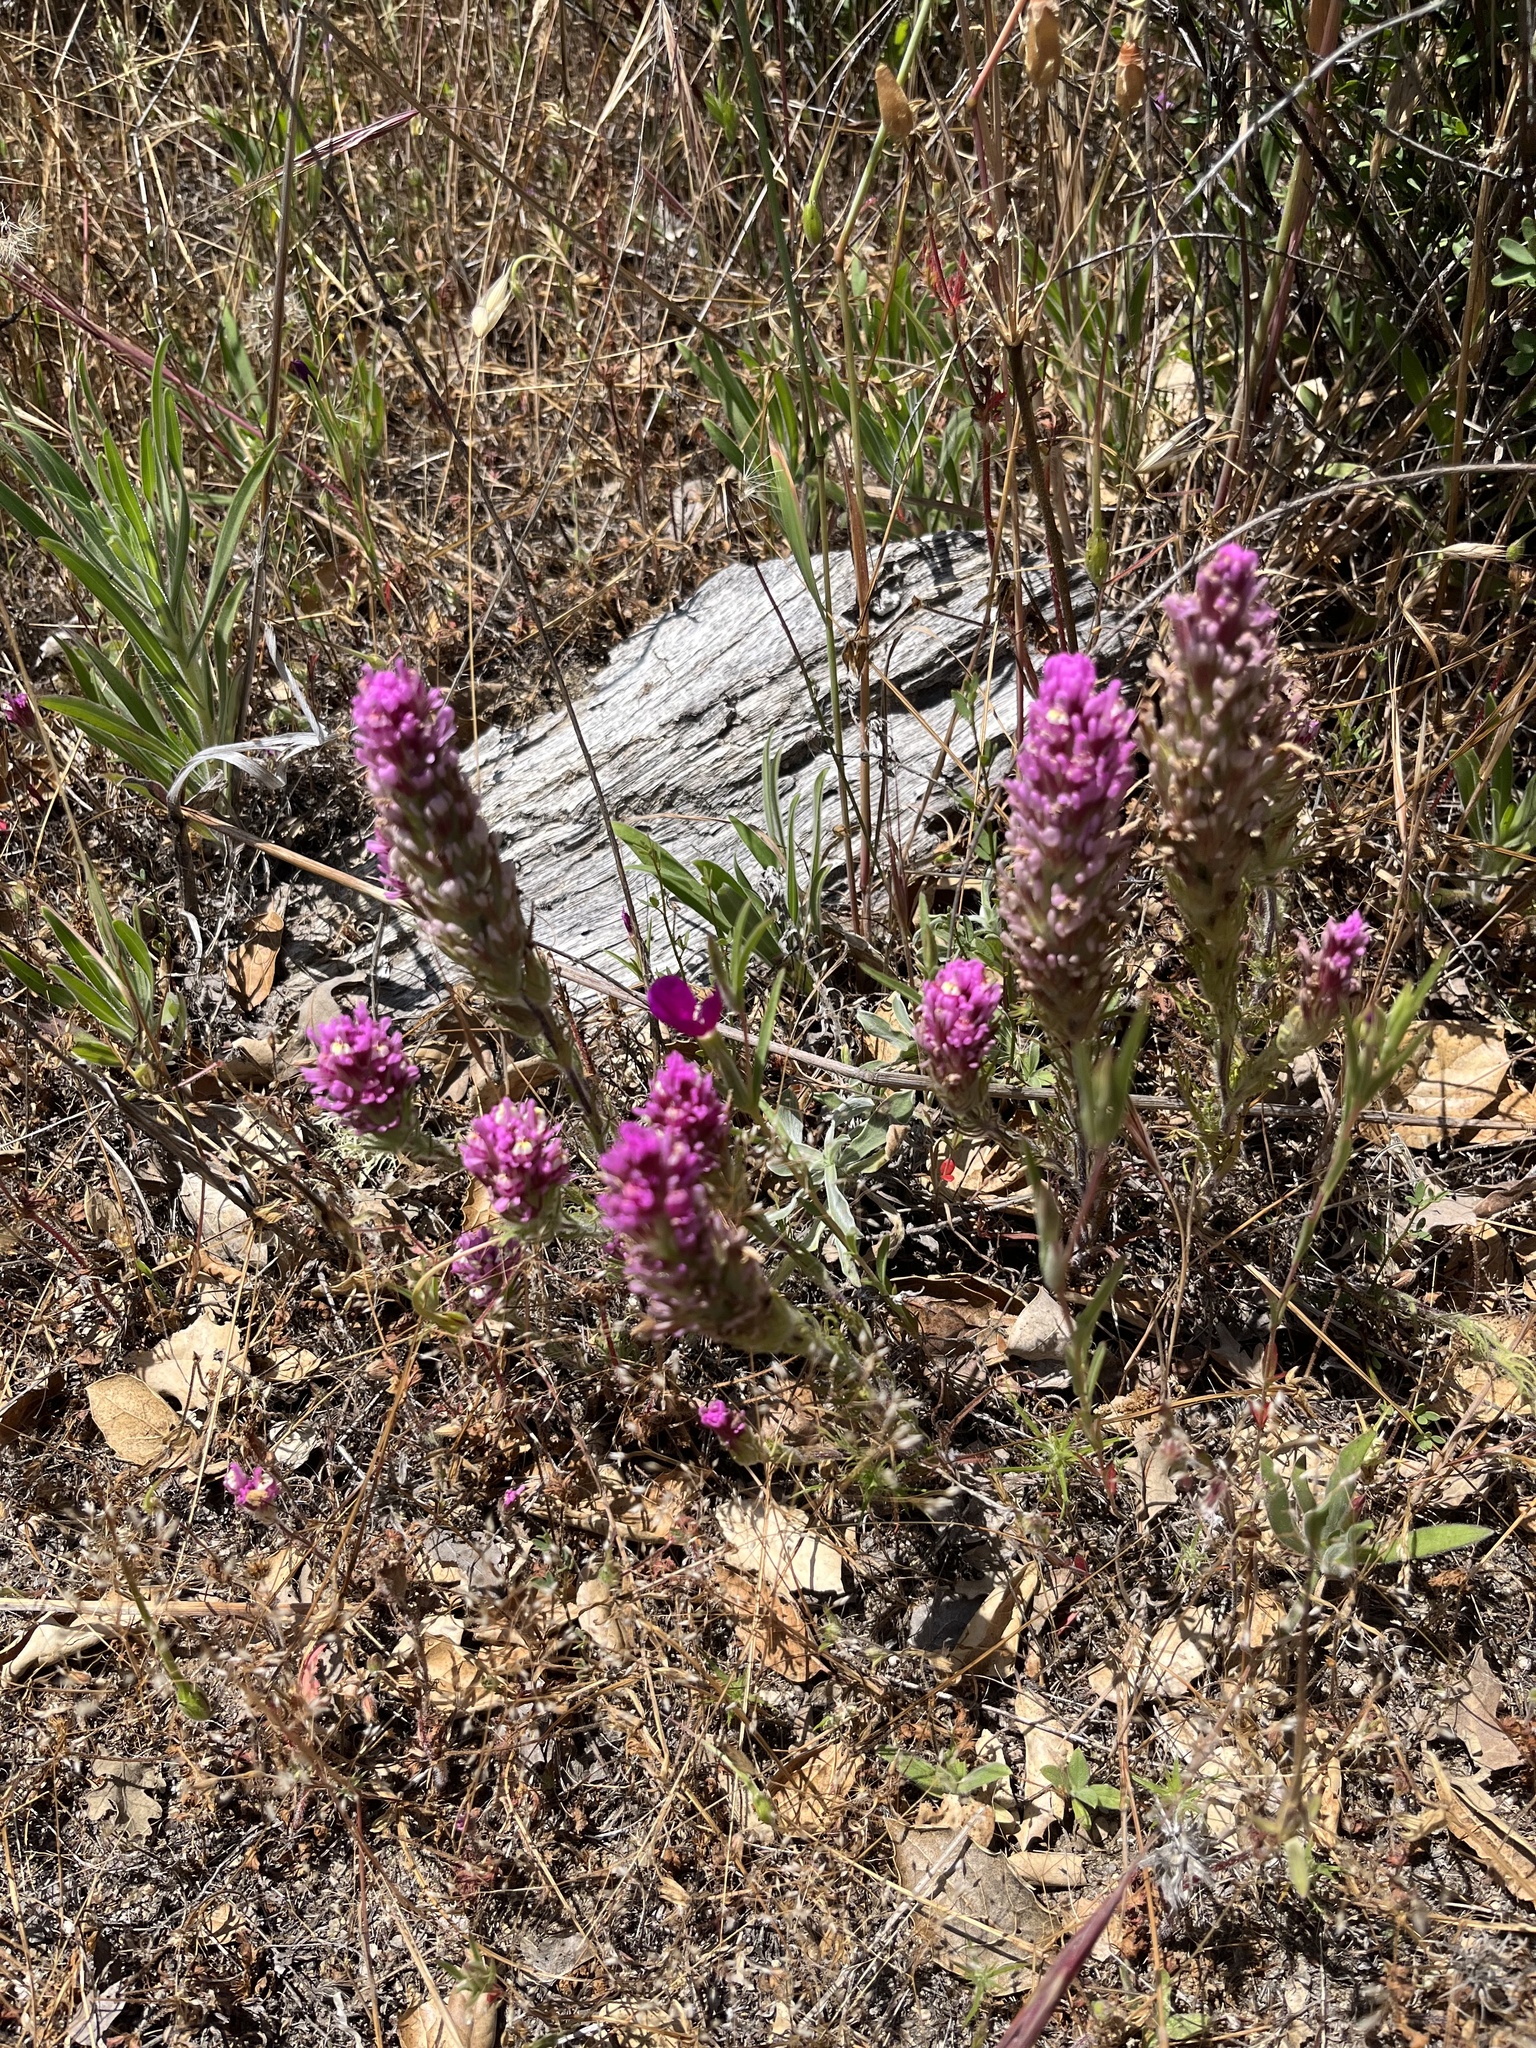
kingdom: Plantae
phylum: Tracheophyta
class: Magnoliopsida
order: Lamiales
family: Orobanchaceae
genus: Castilleja
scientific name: Castilleja exserta
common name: Purple owl-clover
